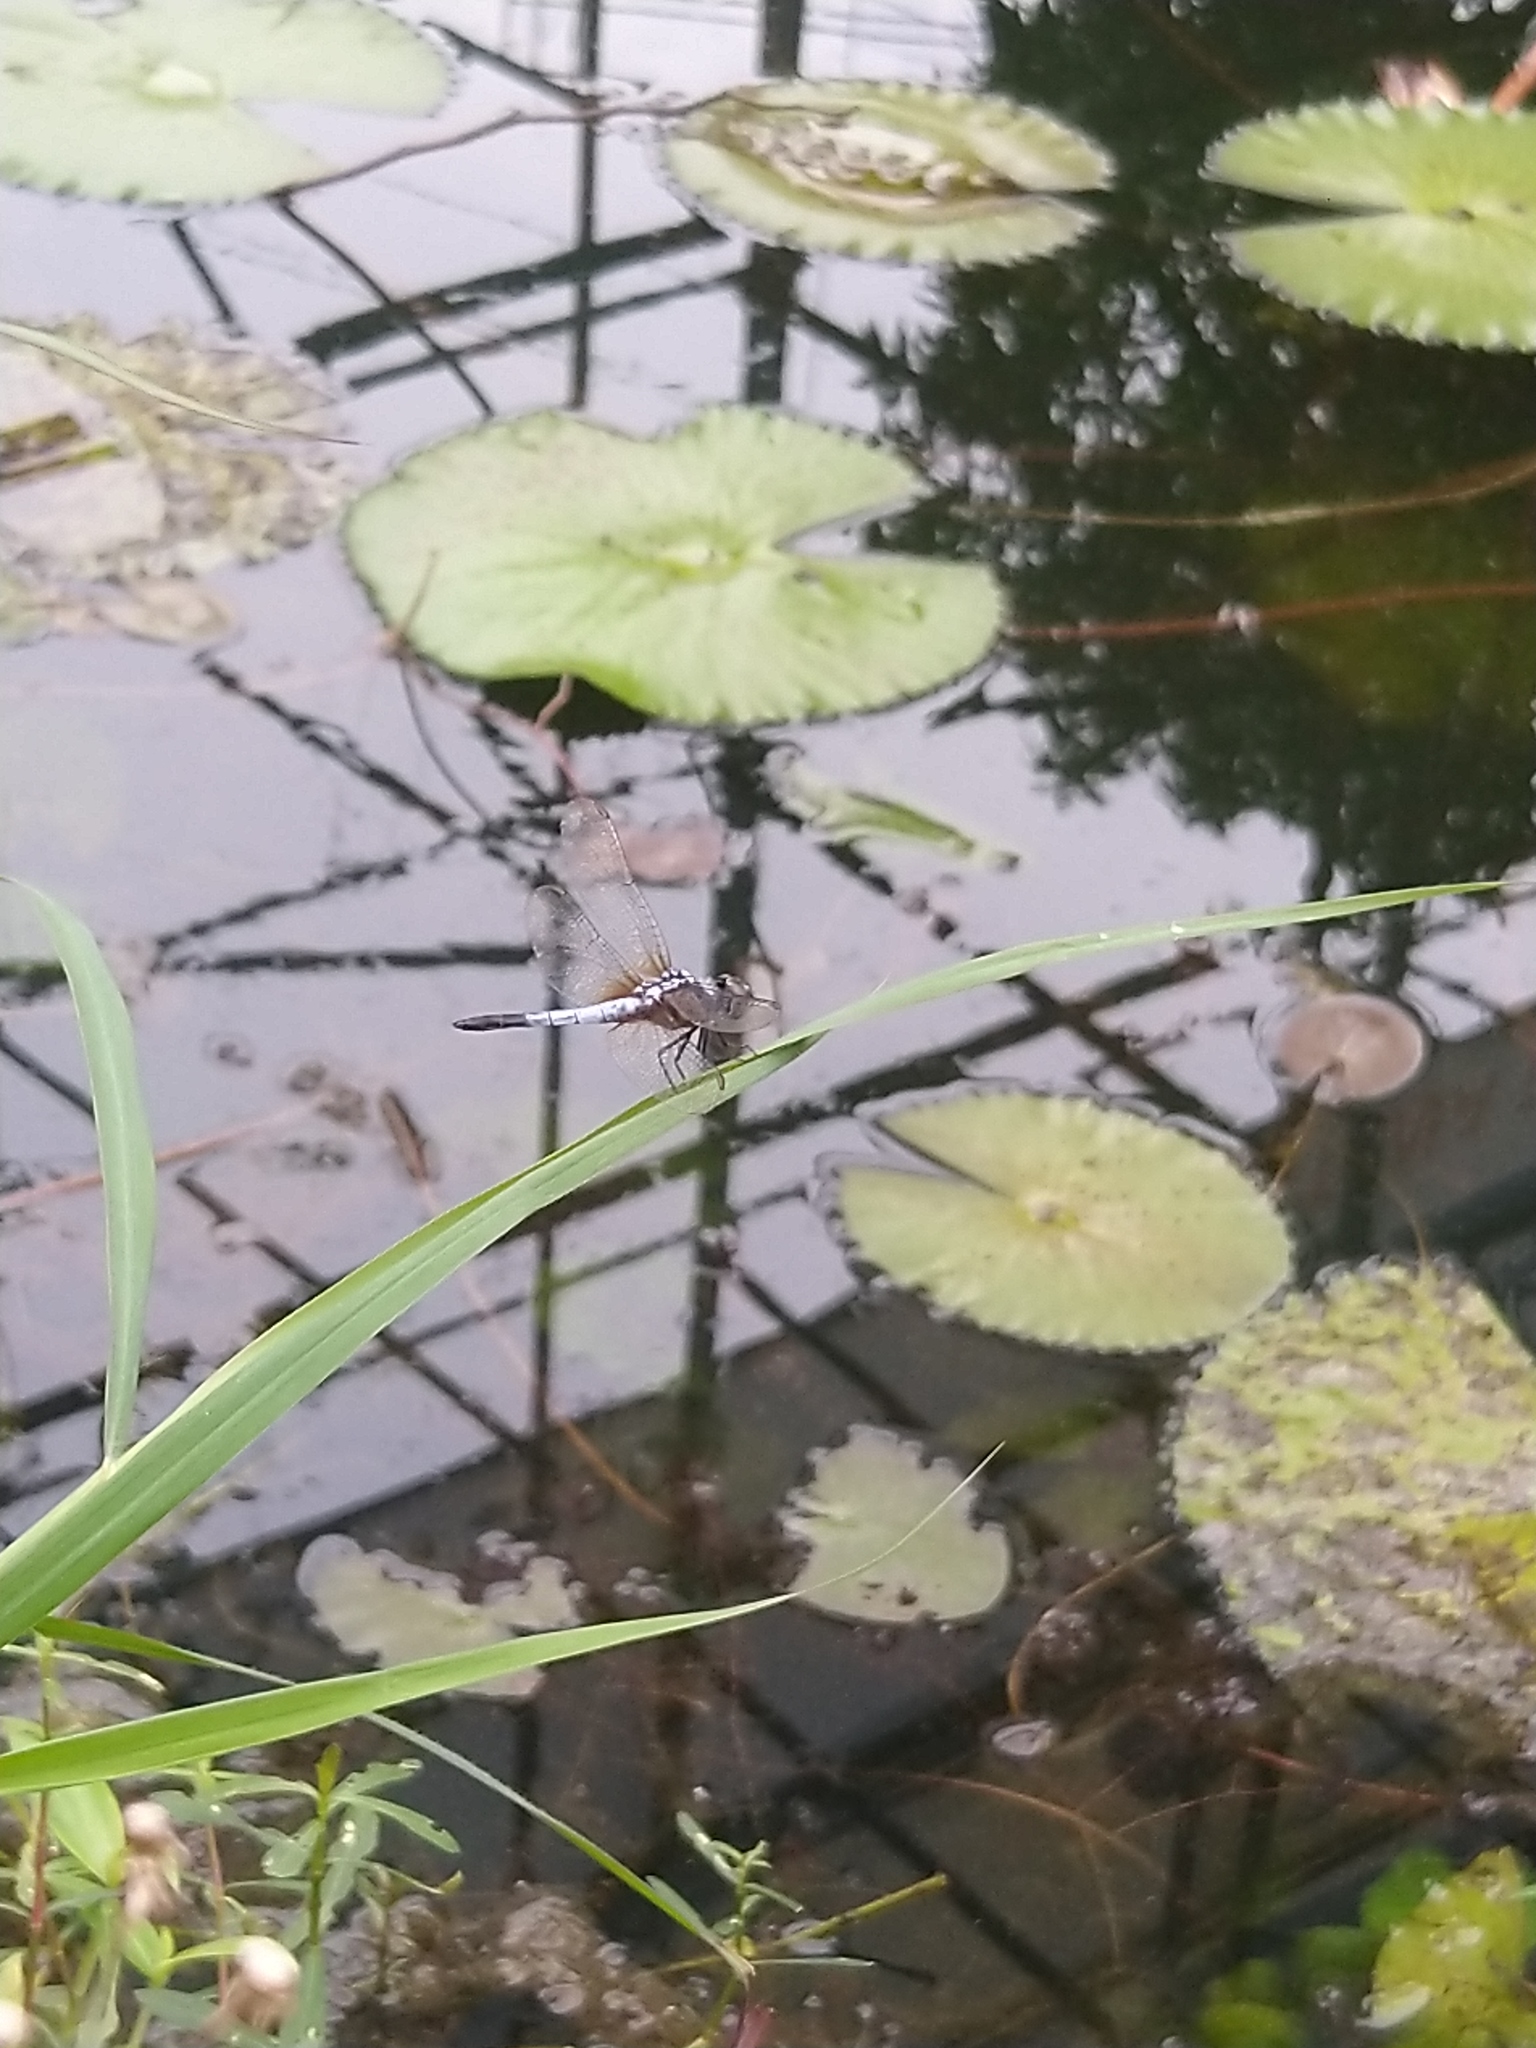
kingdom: Animalia
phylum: Arthropoda
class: Insecta
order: Odonata
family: Libellulidae
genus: Brachydiplax
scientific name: Brachydiplax chalybea
